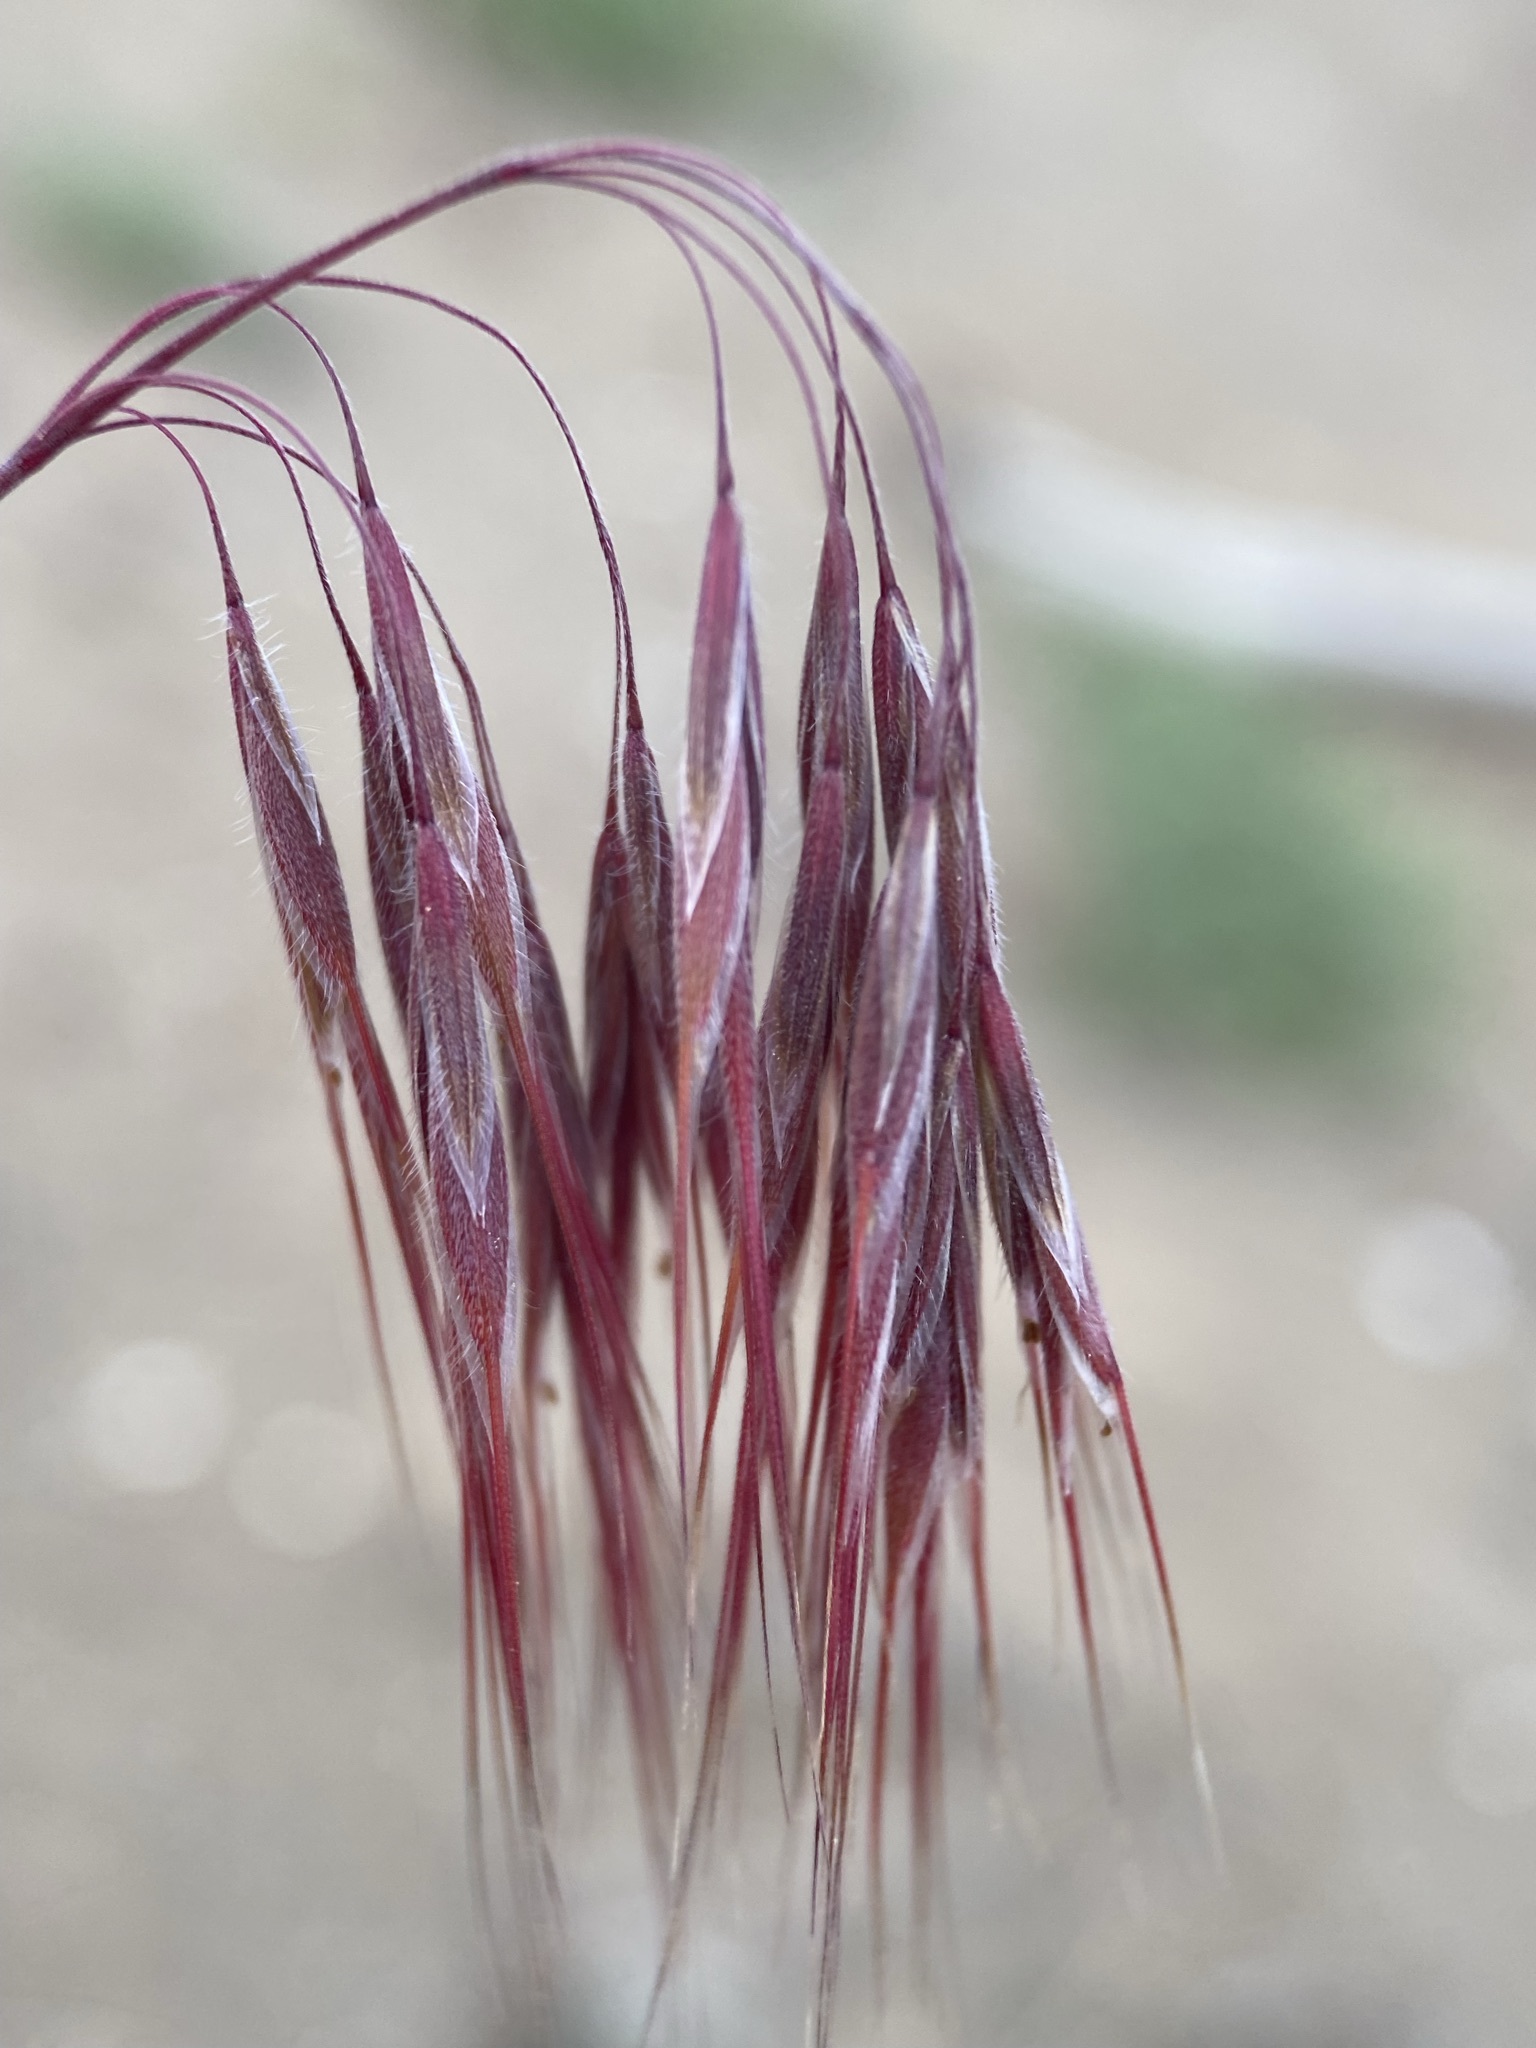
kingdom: Plantae
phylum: Tracheophyta
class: Liliopsida
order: Poales
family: Poaceae
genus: Bromus
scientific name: Bromus tectorum
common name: Cheatgrass
